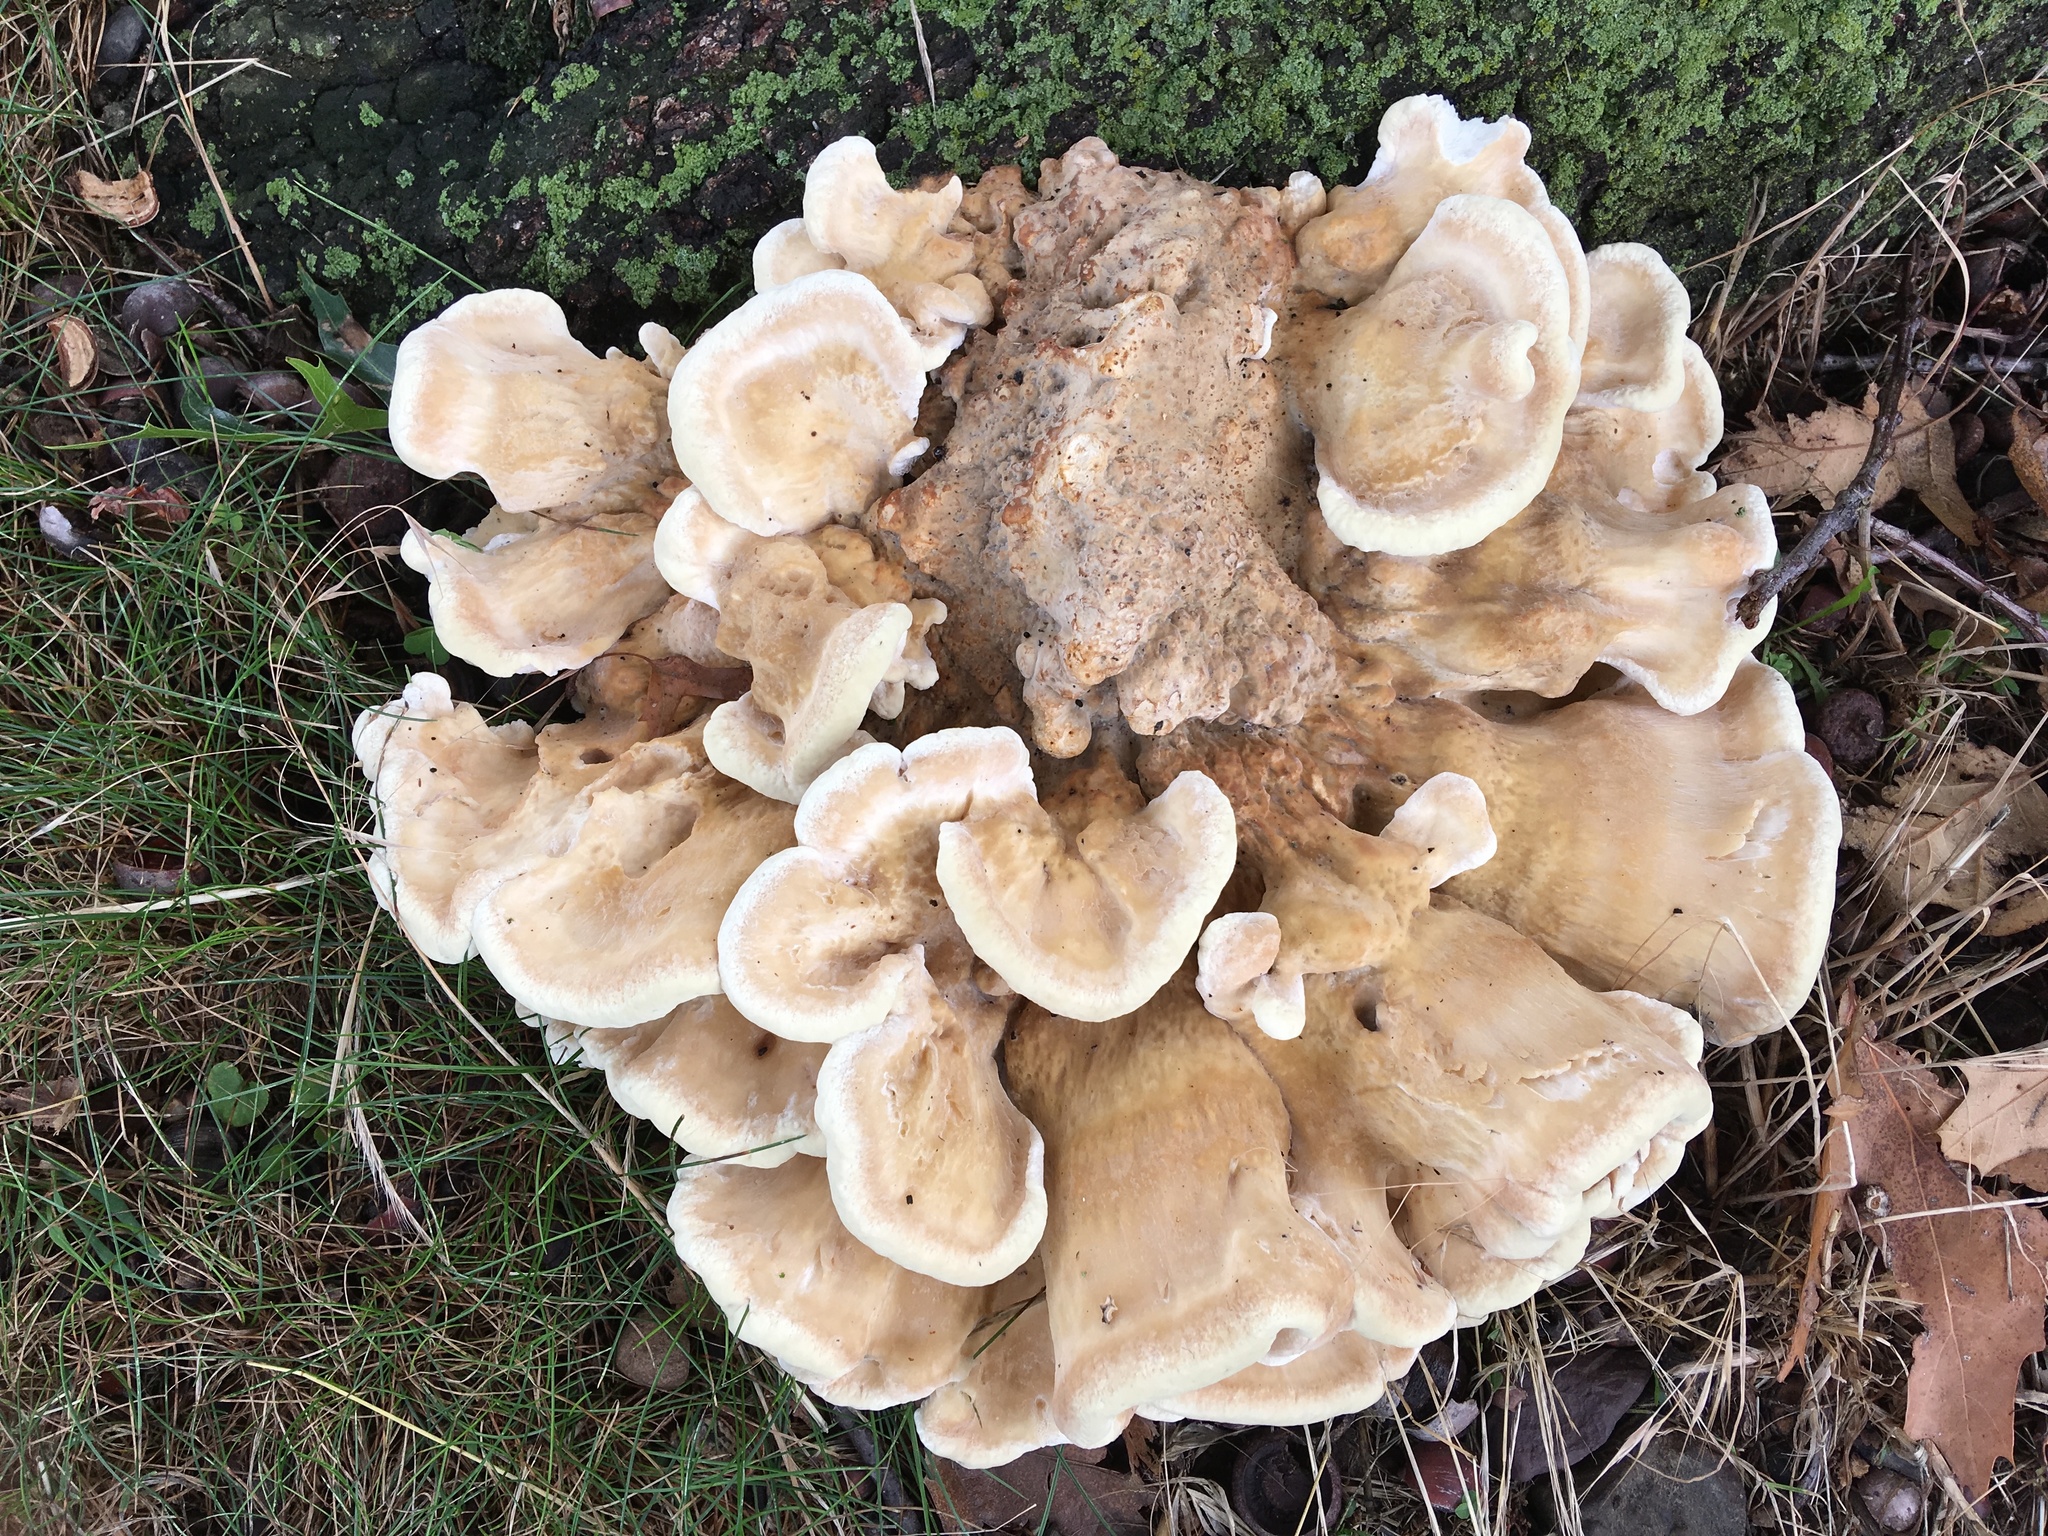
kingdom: Fungi
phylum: Basidiomycota
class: Agaricomycetes
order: Russulales
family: Bondarzewiaceae
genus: Bondarzewia
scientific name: Bondarzewia berkeleyi
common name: Berkeley's polypore
